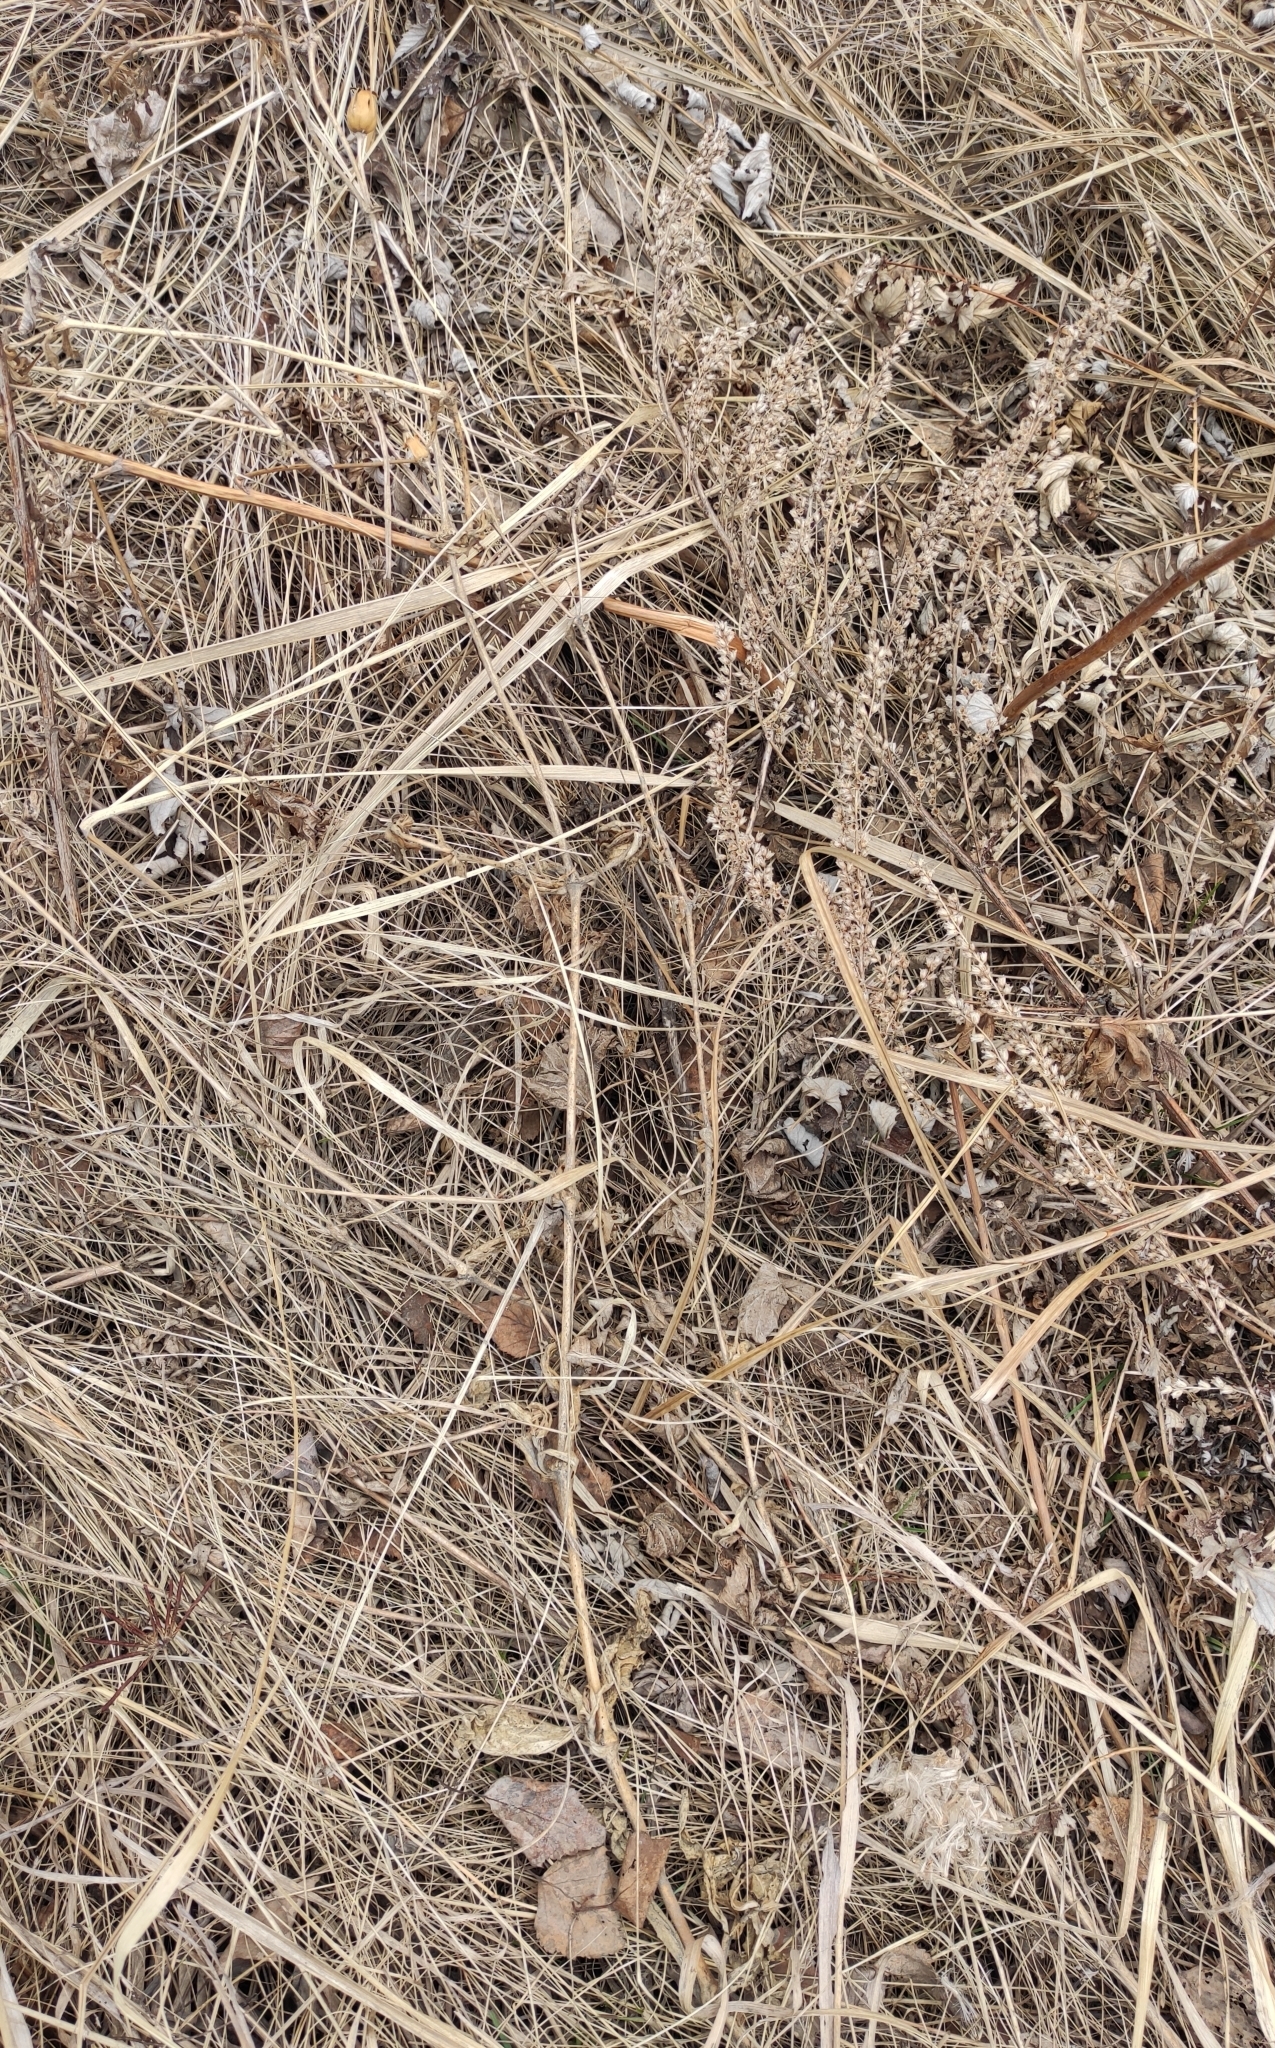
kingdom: Plantae
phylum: Tracheophyta
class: Magnoliopsida
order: Caryophyllales
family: Caryophyllaceae
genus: Silene
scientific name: Silene latifolia
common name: White campion
